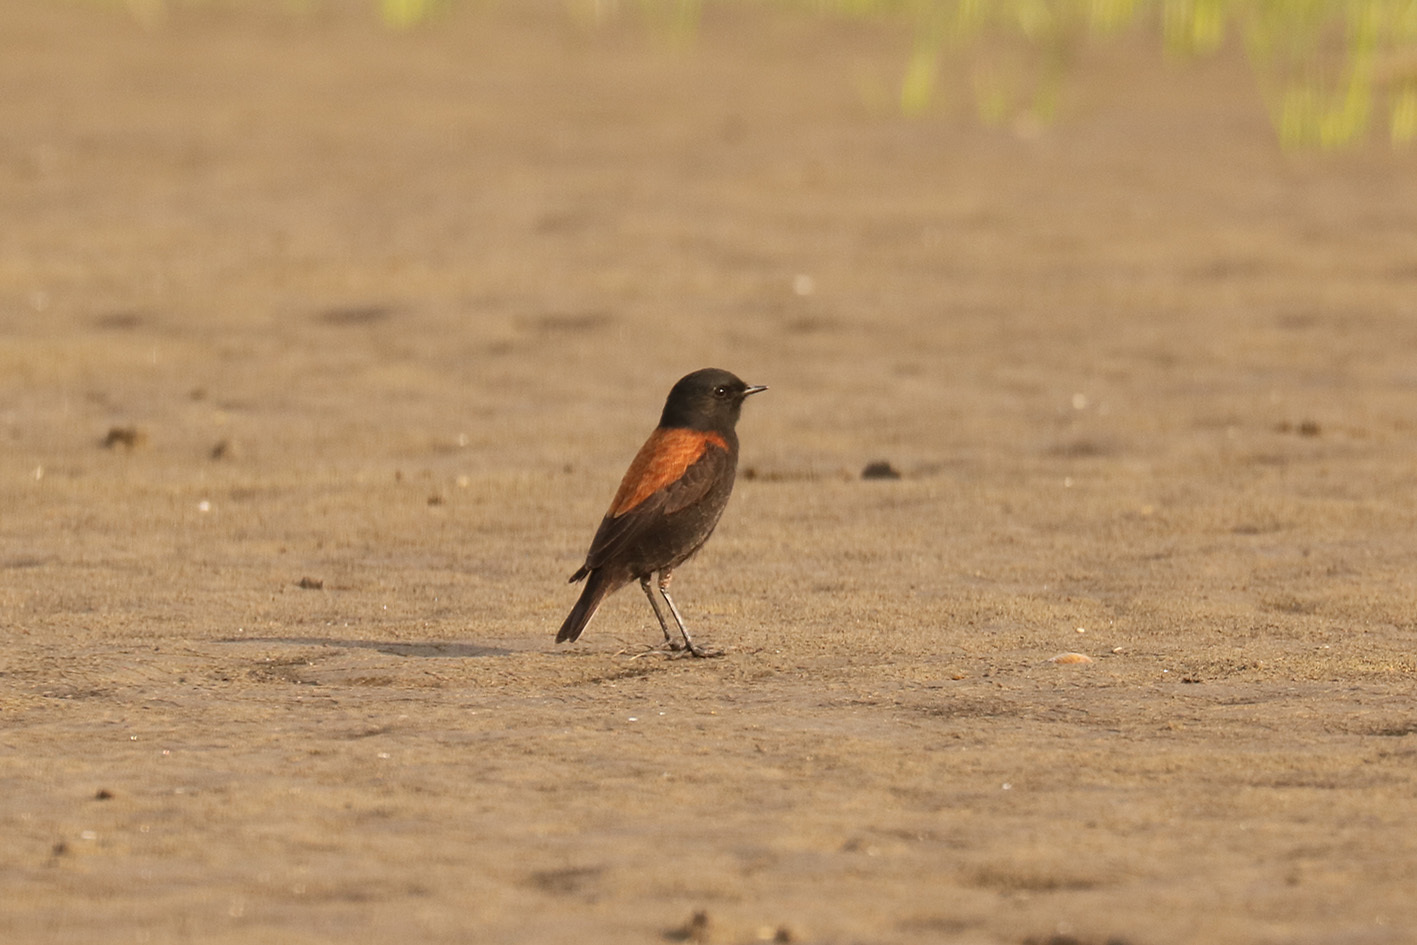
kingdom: Animalia
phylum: Chordata
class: Aves
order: Passeriformes
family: Tyrannidae
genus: Lessonia
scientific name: Lessonia rufa
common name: Austral negrito
